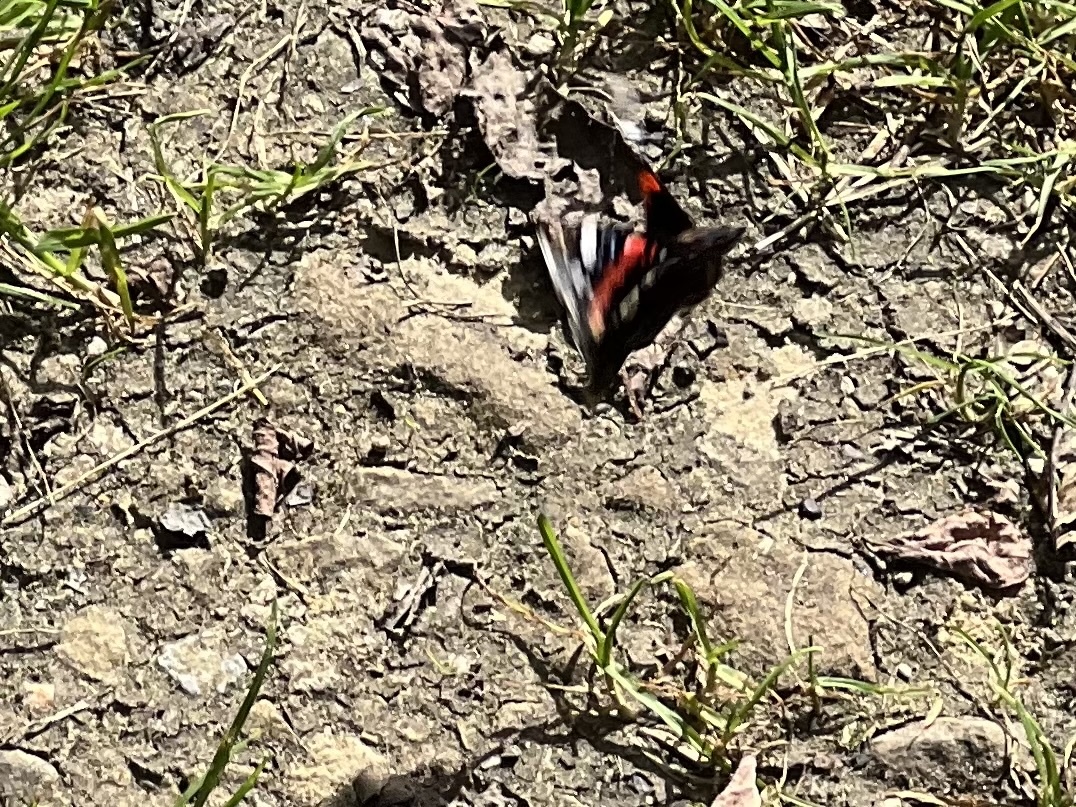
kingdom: Animalia
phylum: Arthropoda
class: Insecta
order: Lepidoptera
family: Nymphalidae
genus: Vanessa
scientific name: Vanessa atalanta
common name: Red admiral
